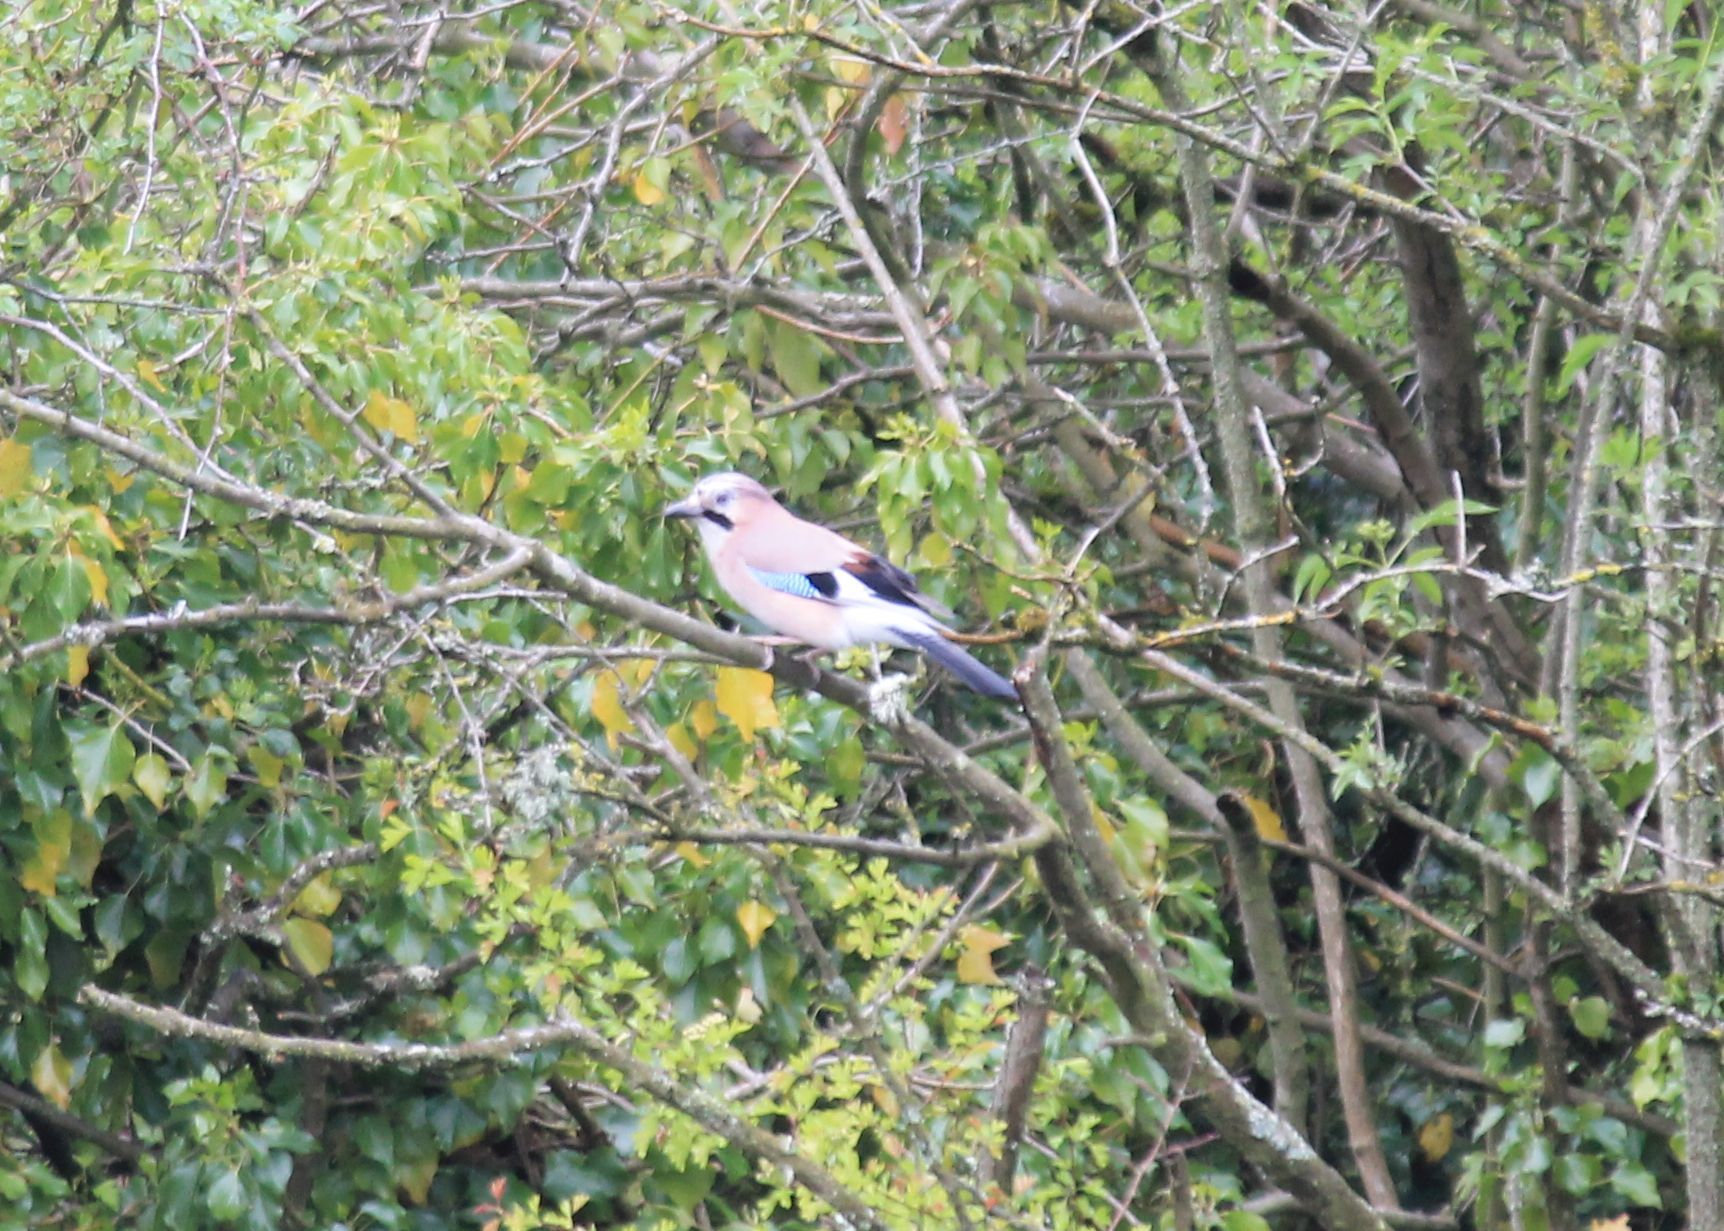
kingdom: Animalia
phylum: Chordata
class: Aves
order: Passeriformes
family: Corvidae
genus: Garrulus
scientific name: Garrulus glandarius
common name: Eurasian jay
